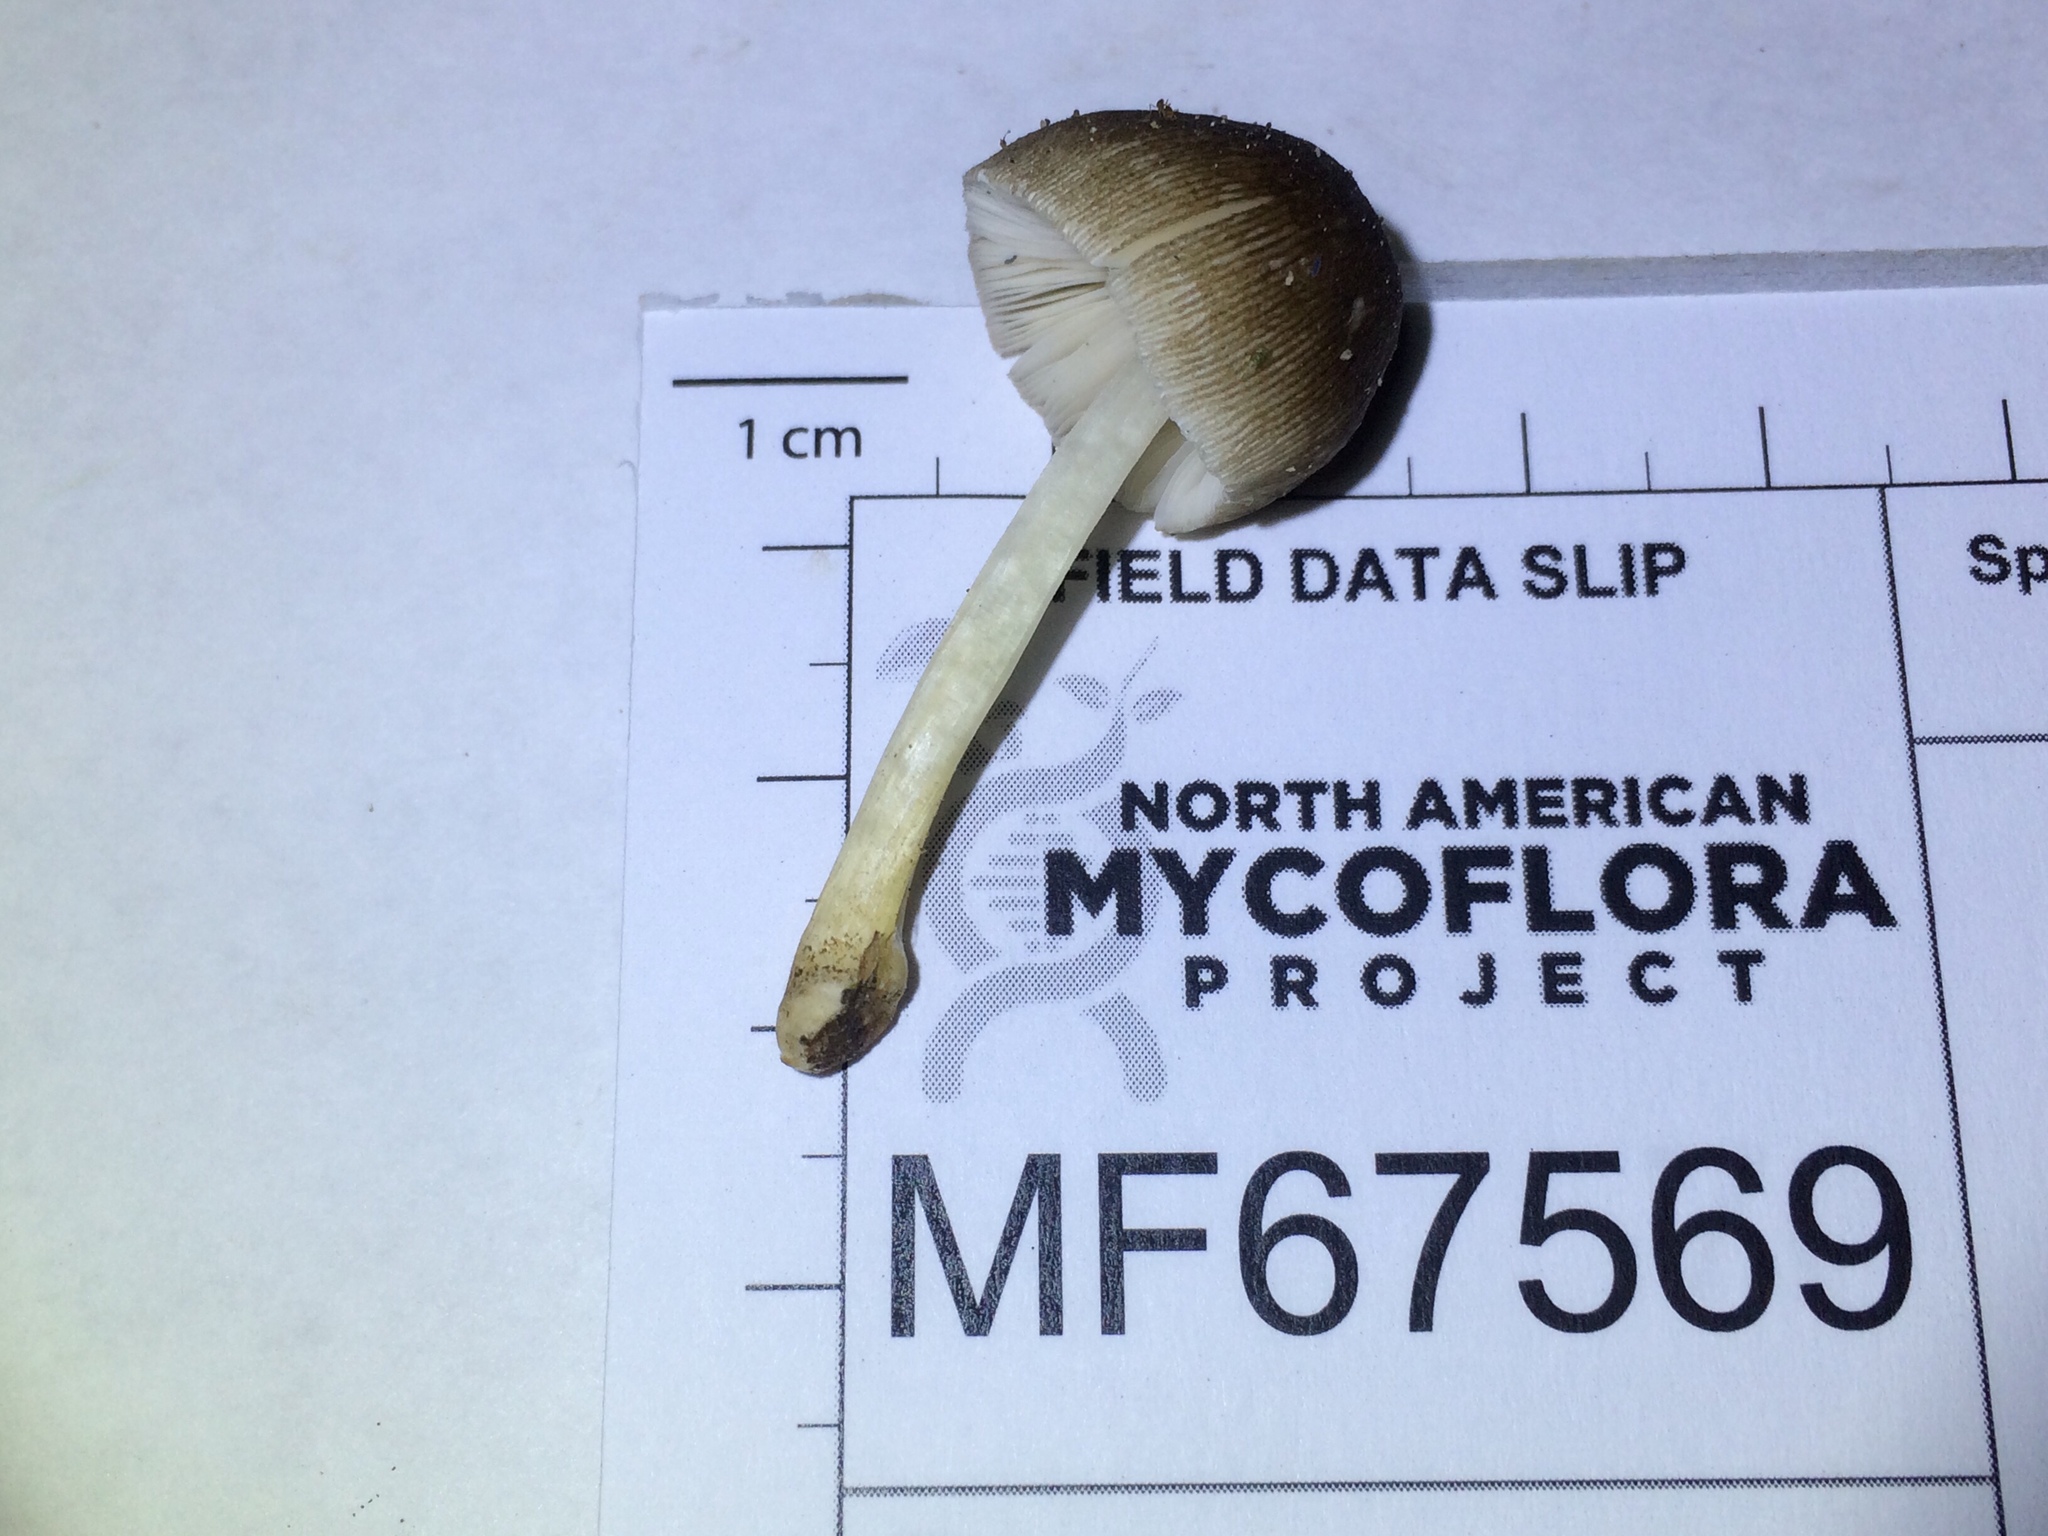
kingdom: Fungi
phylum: Basidiomycota
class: Agaricomycetes
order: Agaricales
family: Pluteaceae
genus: Pluteus
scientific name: Pluteus longistriatus
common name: Pleated pluteus
